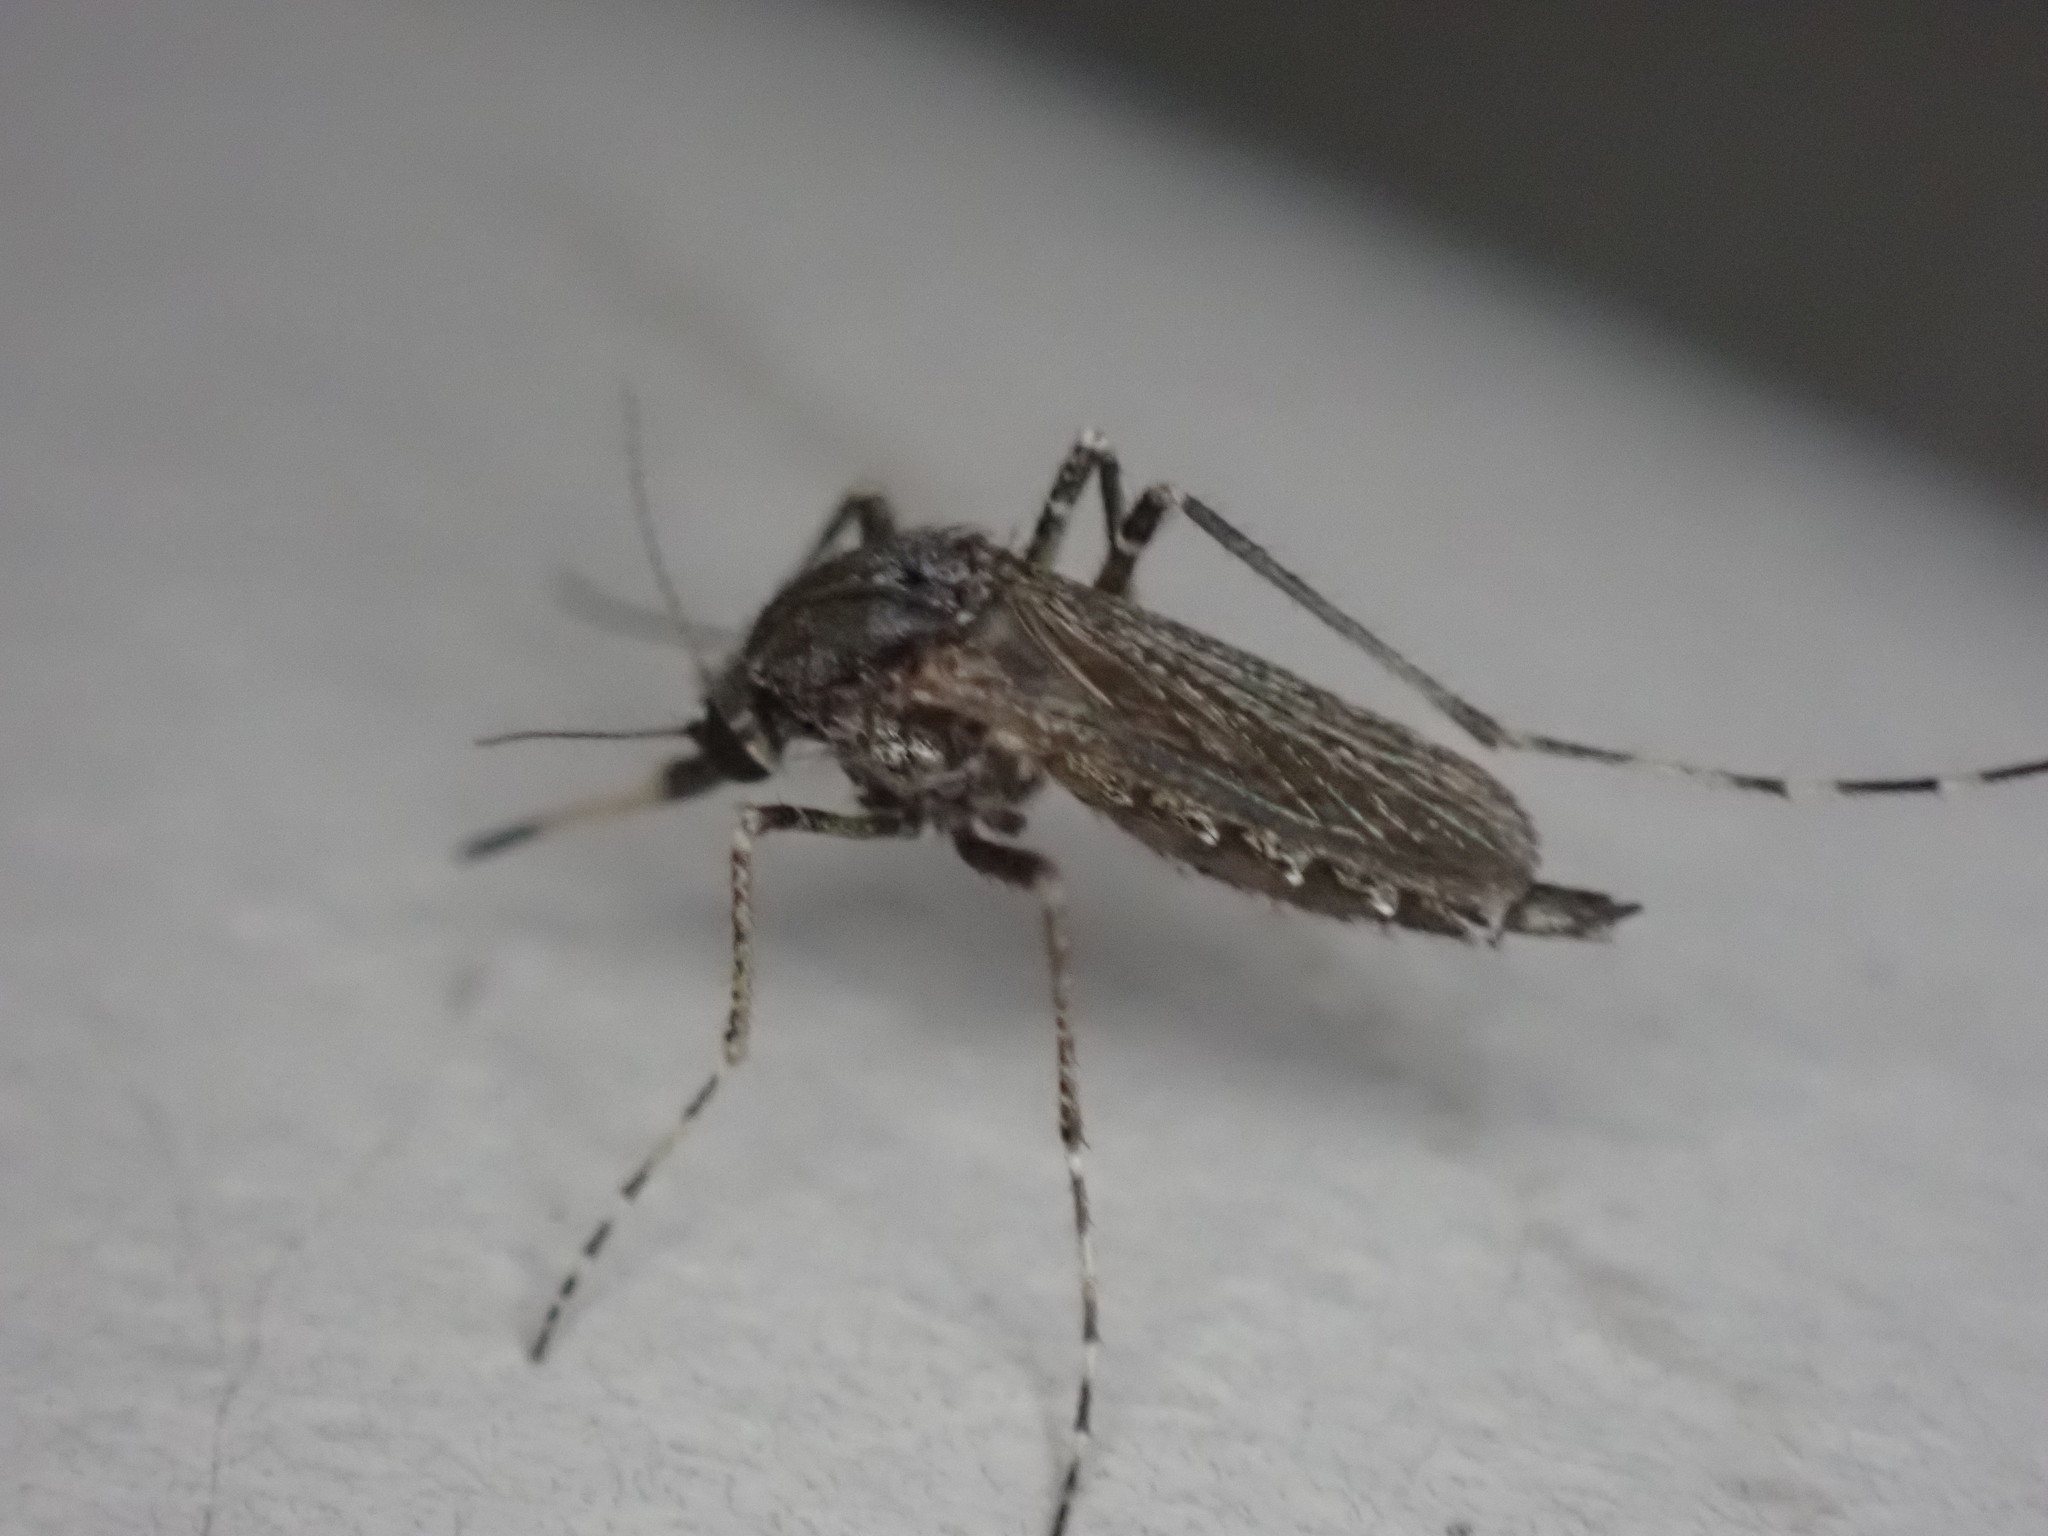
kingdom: Animalia
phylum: Arthropoda
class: Insecta
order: Diptera
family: Culicidae
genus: Psorophora
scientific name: Psorophora columbiae
